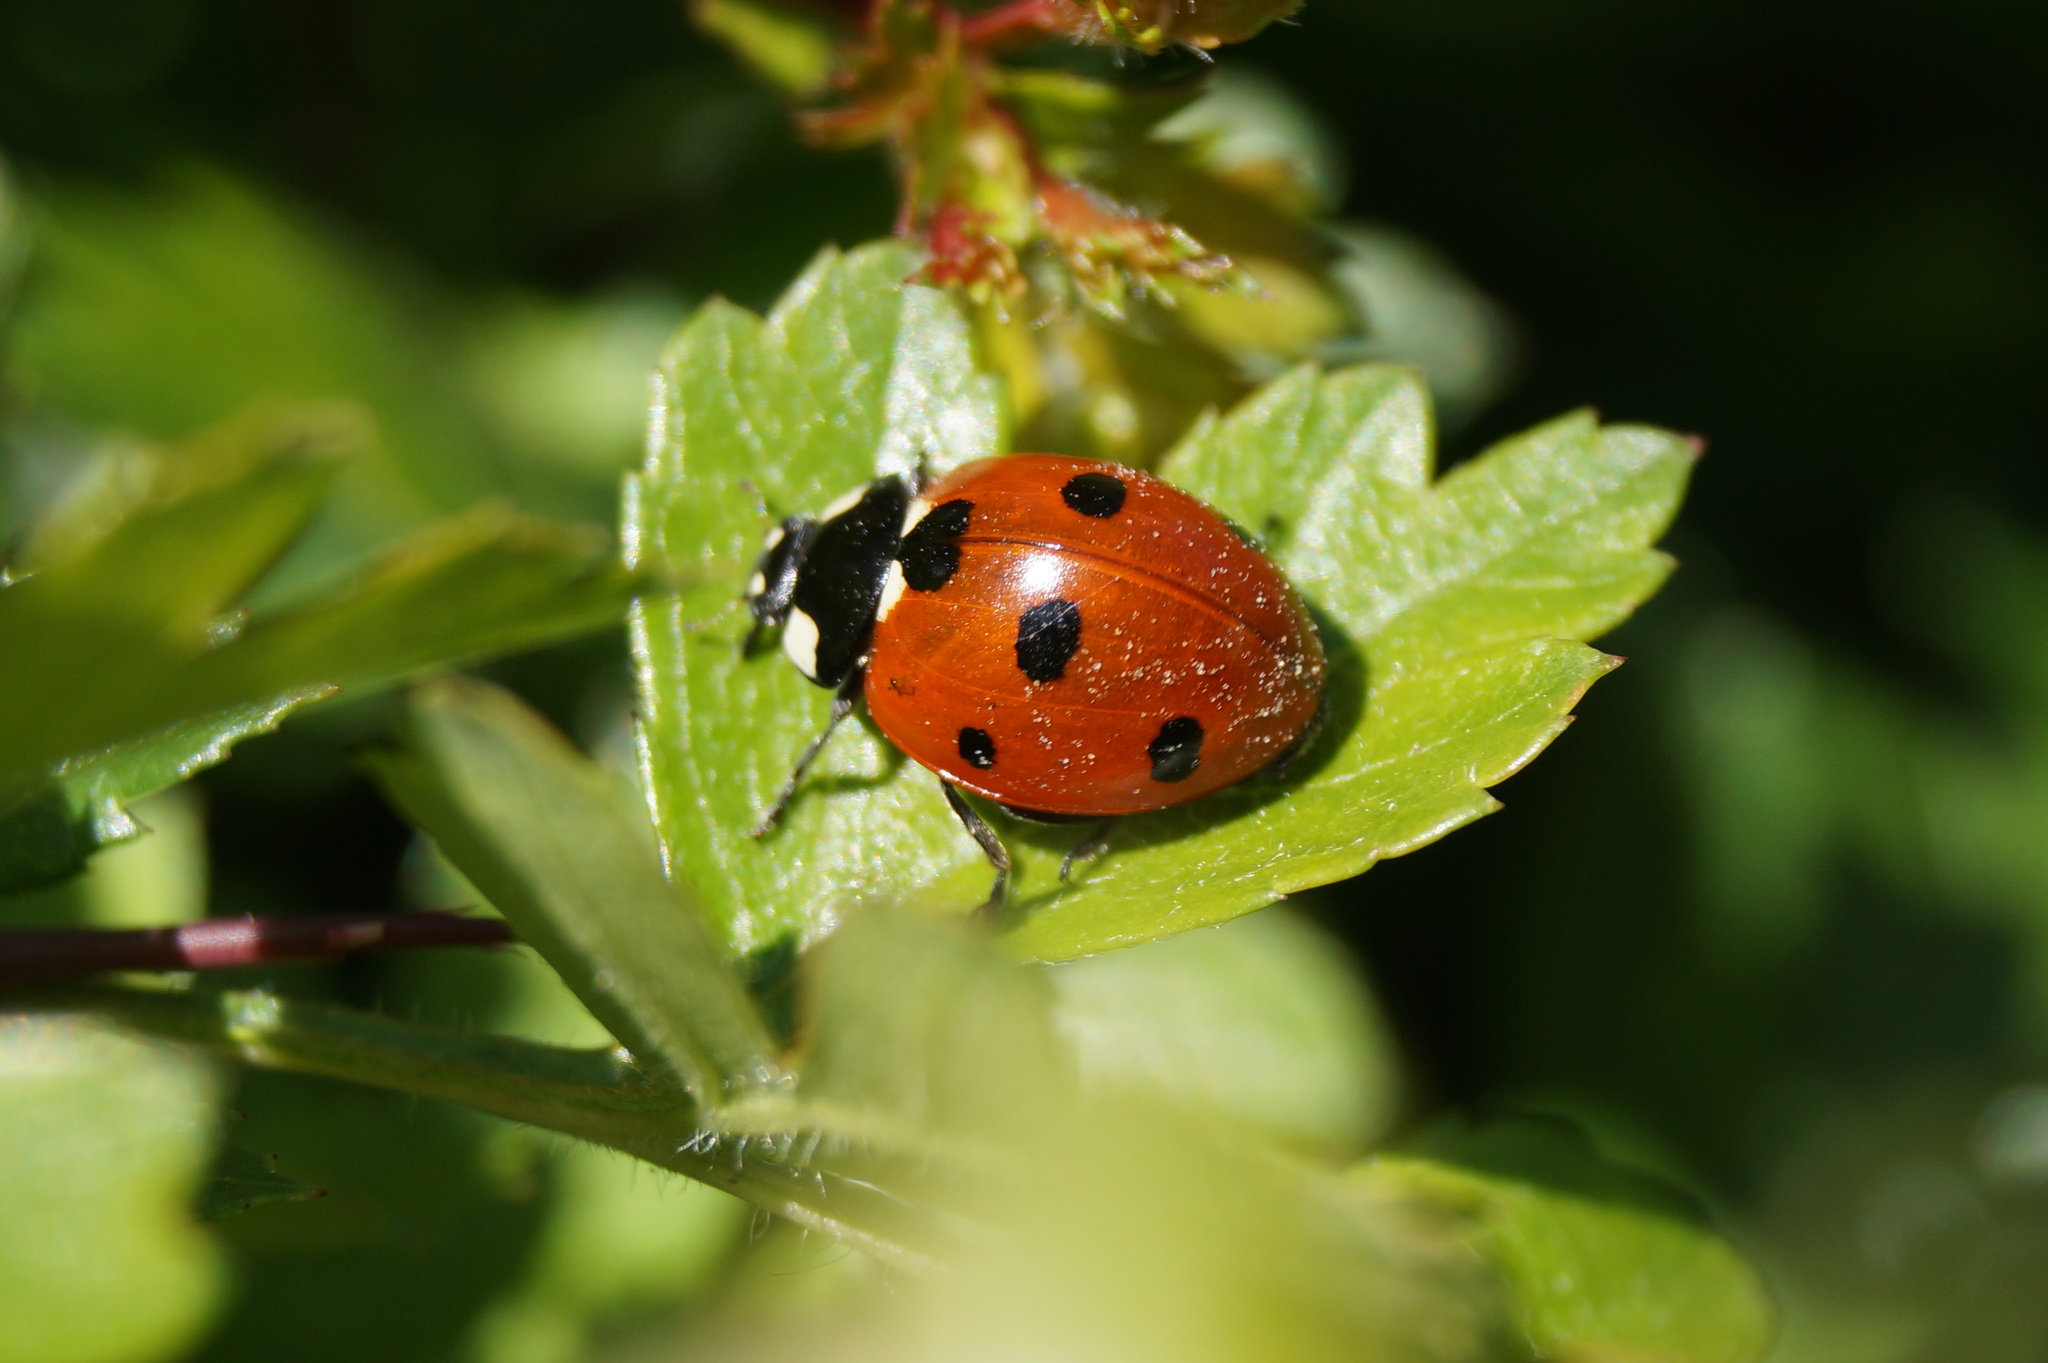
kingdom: Animalia
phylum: Arthropoda
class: Insecta
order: Coleoptera
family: Coccinellidae
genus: Coccinella
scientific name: Coccinella septempunctata
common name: Sevenspotted lady beetle
